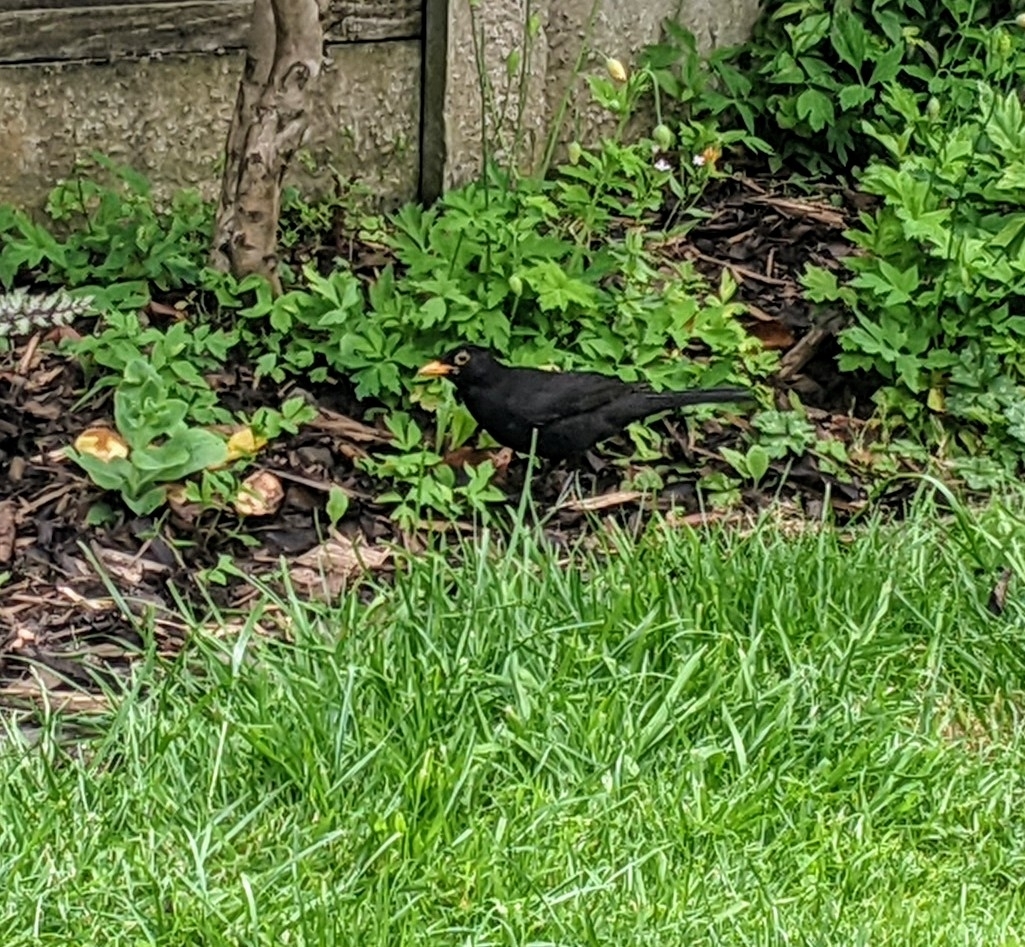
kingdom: Animalia
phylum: Chordata
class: Aves
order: Passeriformes
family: Turdidae
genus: Turdus
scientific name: Turdus merula
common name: Common blackbird
